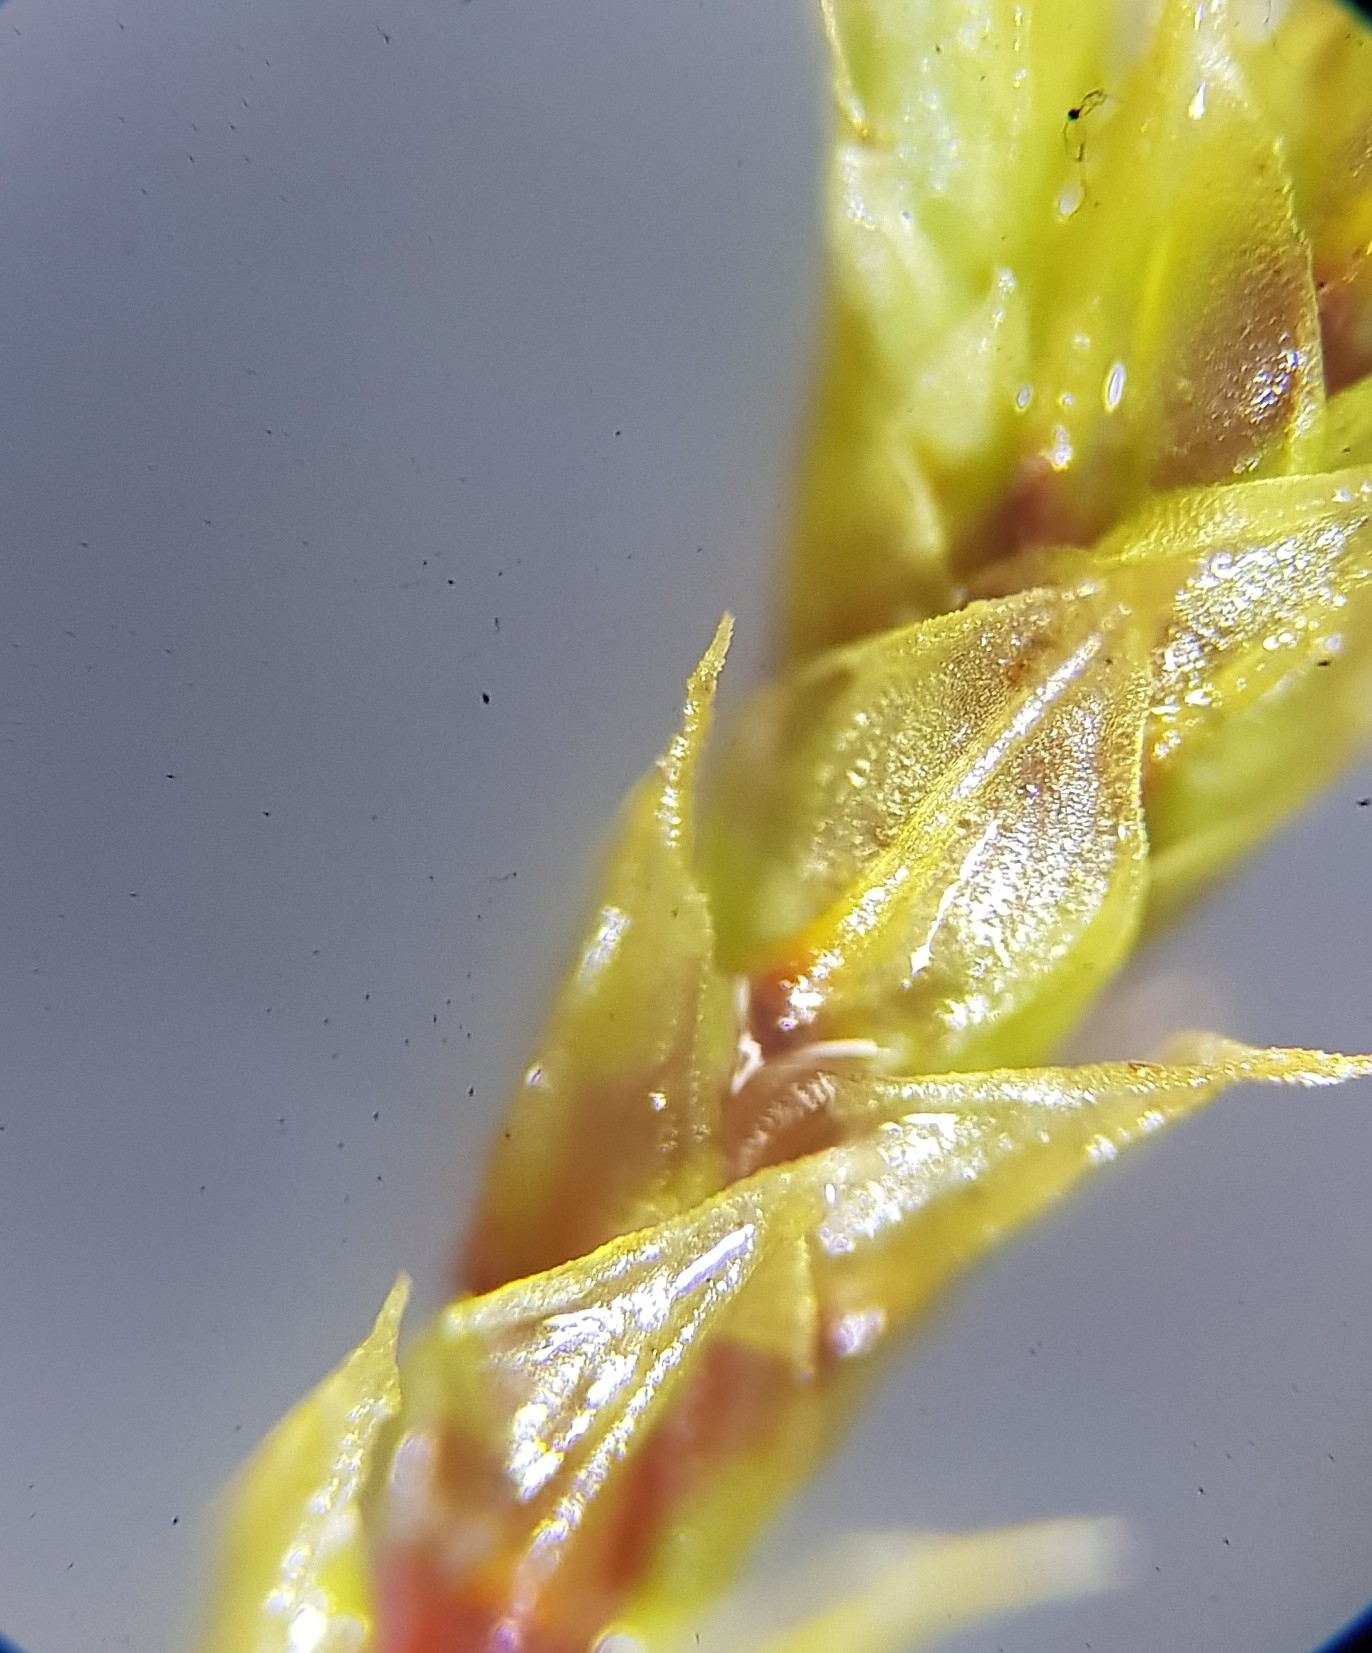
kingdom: Plantae
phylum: Bryophyta
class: Bryopsida
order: Bartramiales
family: Bartramiaceae
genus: Philonotis
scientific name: Philonotis fontana
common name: Fountain apple-moss
